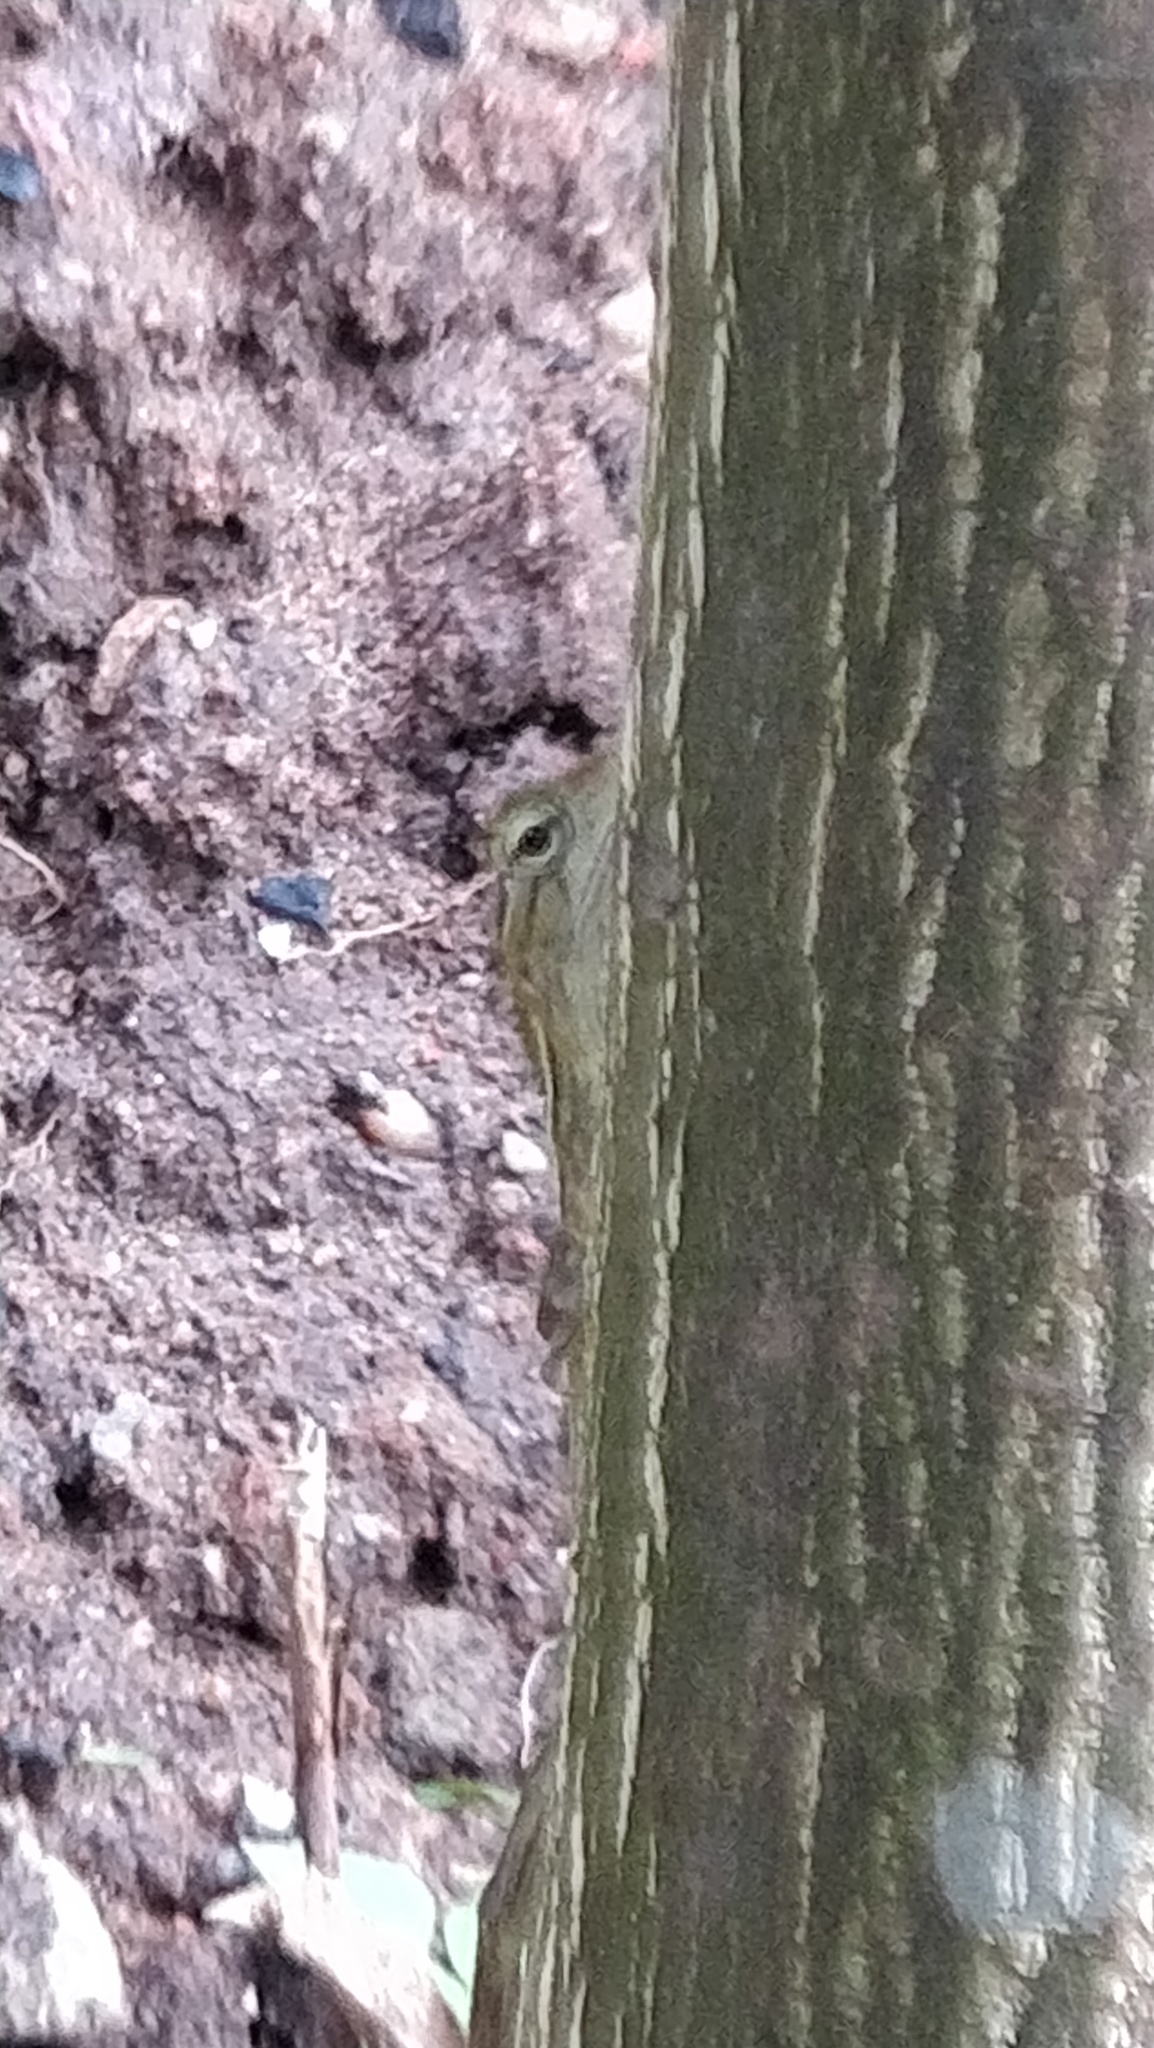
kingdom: Animalia
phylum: Chordata
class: Squamata
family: Agamidae
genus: Calotes
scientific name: Calotes versicolor
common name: Oriental garden lizard
